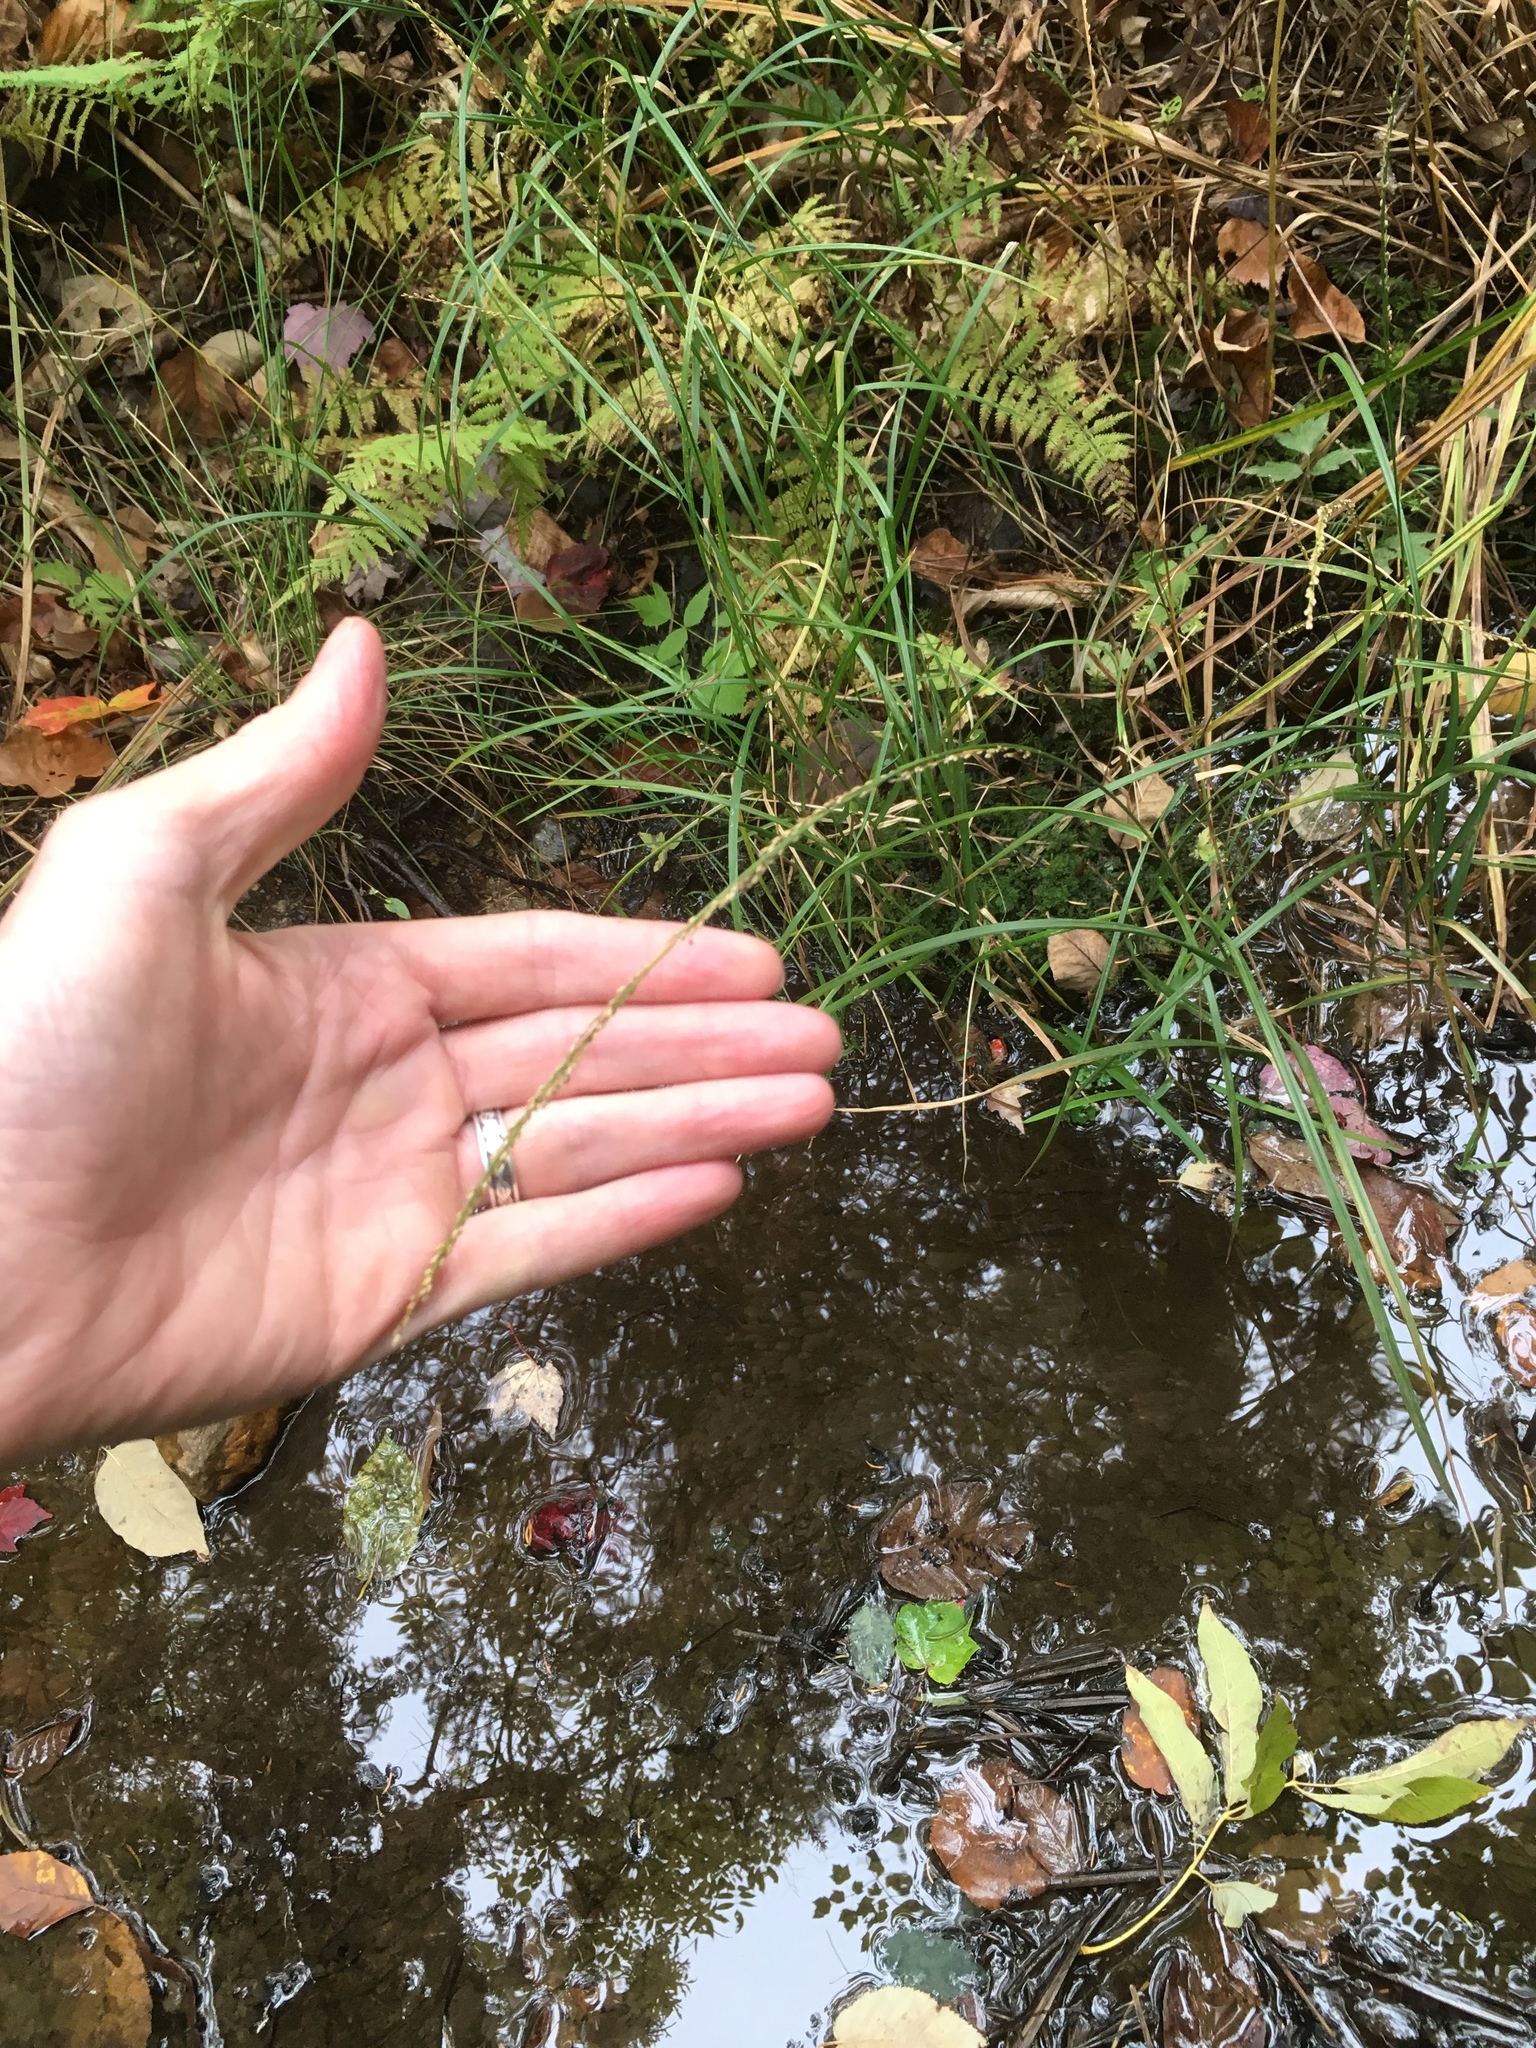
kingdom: Plantae
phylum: Tracheophyta
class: Liliopsida
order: Poales
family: Poaceae
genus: Glyceria
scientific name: Glyceria melicaria
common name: Long mannagrass
